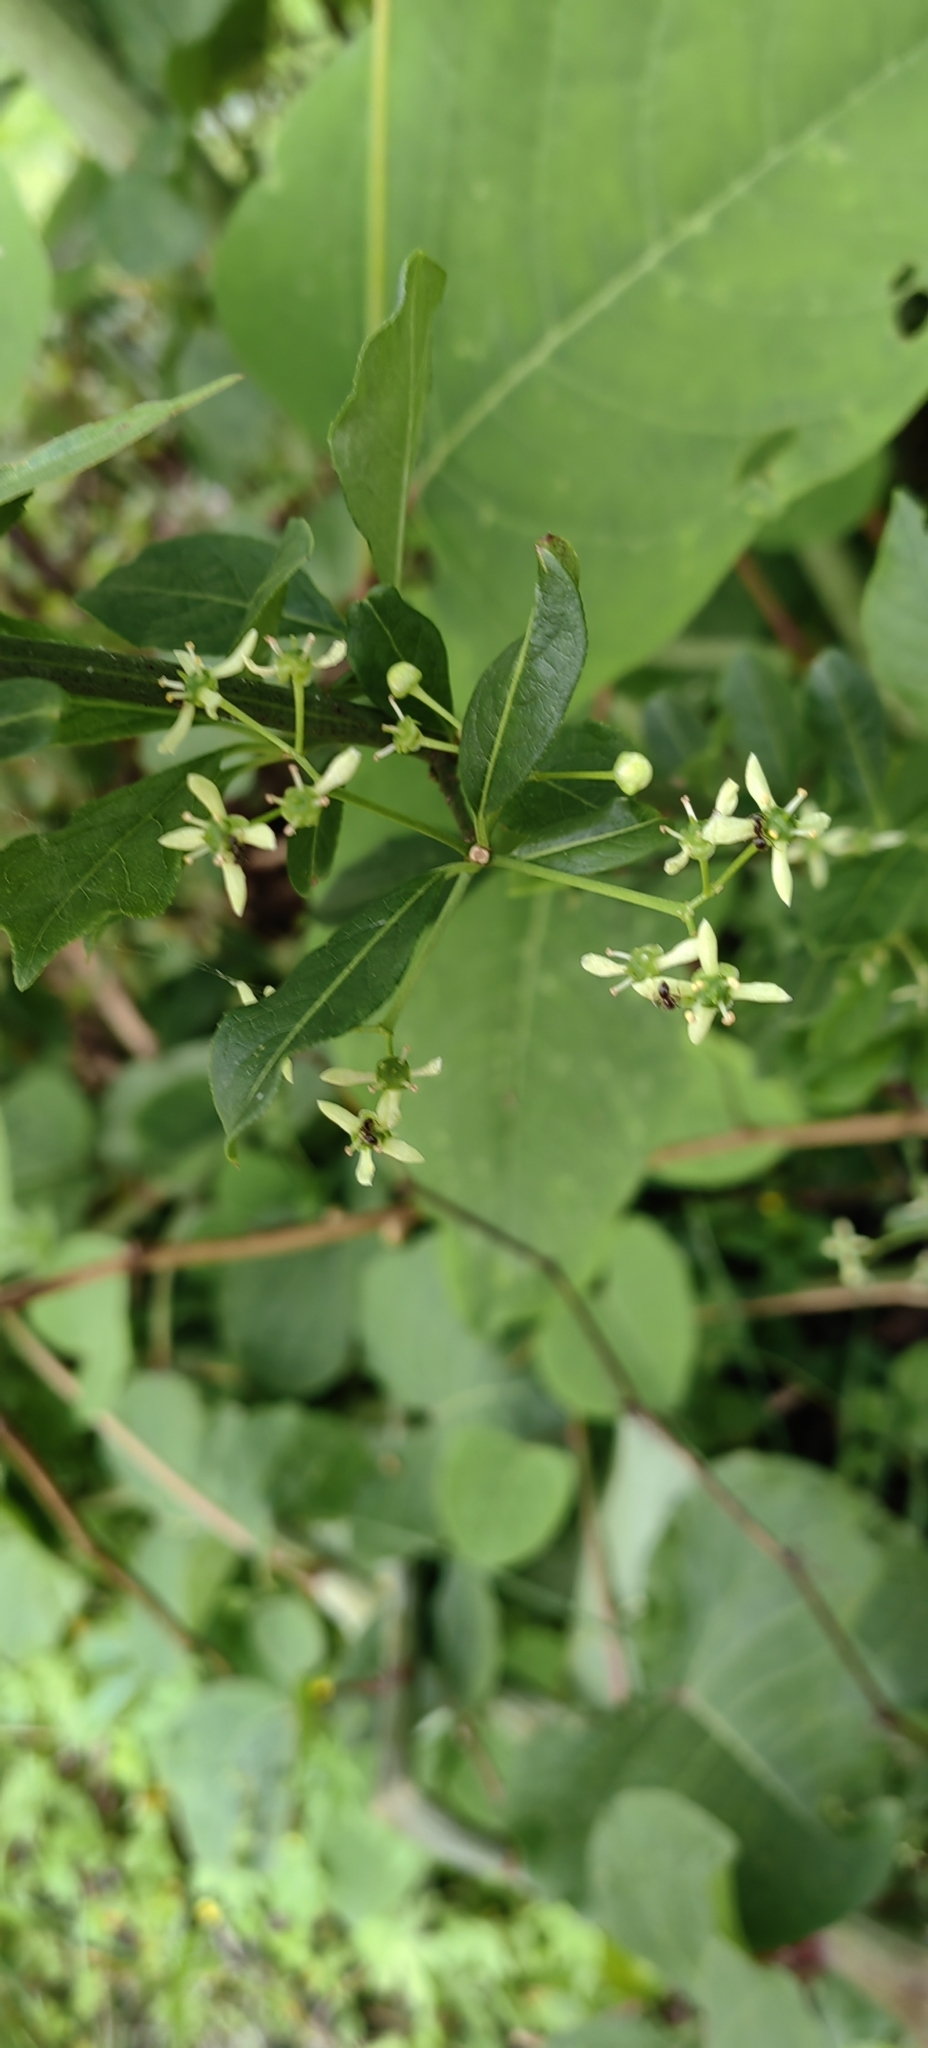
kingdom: Plantae
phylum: Tracheophyta
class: Magnoliopsida
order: Celastrales
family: Celastraceae
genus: Euonymus
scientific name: Euonymus europaeus
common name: Spindle
